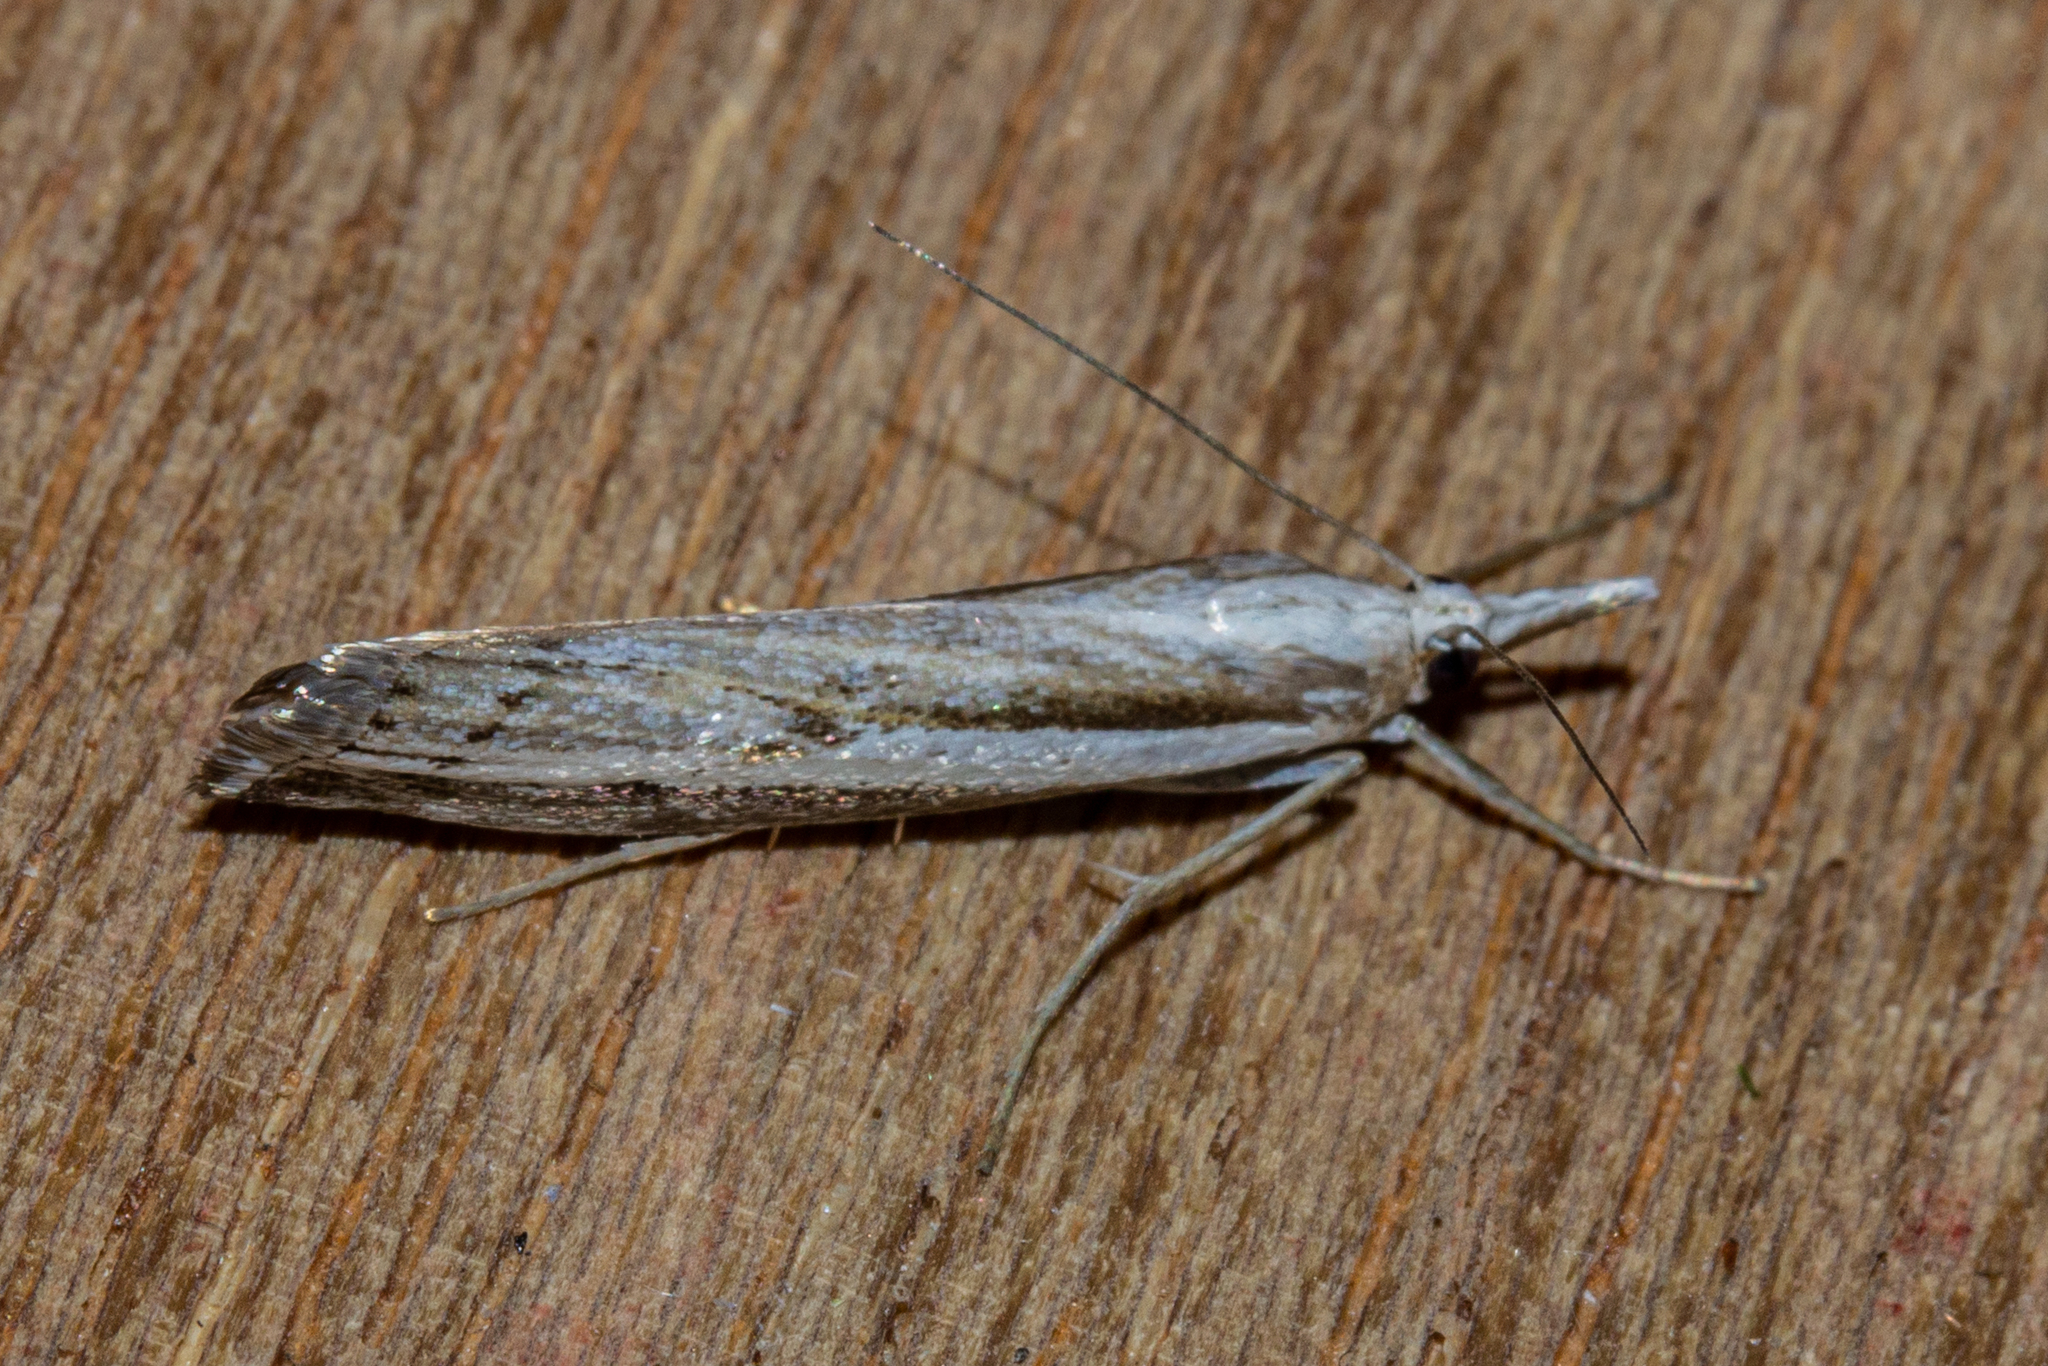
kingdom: Animalia
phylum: Arthropoda
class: Insecta
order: Lepidoptera
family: Crambidae
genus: Orocrambus
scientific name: Orocrambus vittellus
